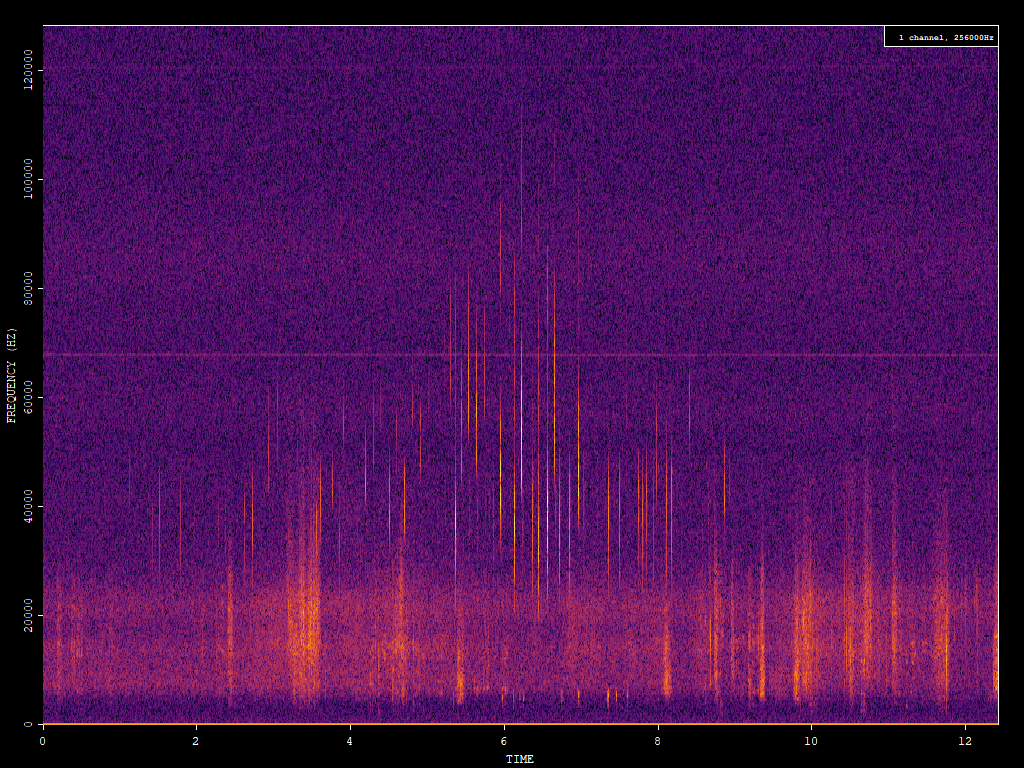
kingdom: Animalia
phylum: Chordata
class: Mammalia
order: Chiroptera
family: Vespertilionidae
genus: Myotis
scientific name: Myotis daubentonii
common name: Daubenton's myotis
